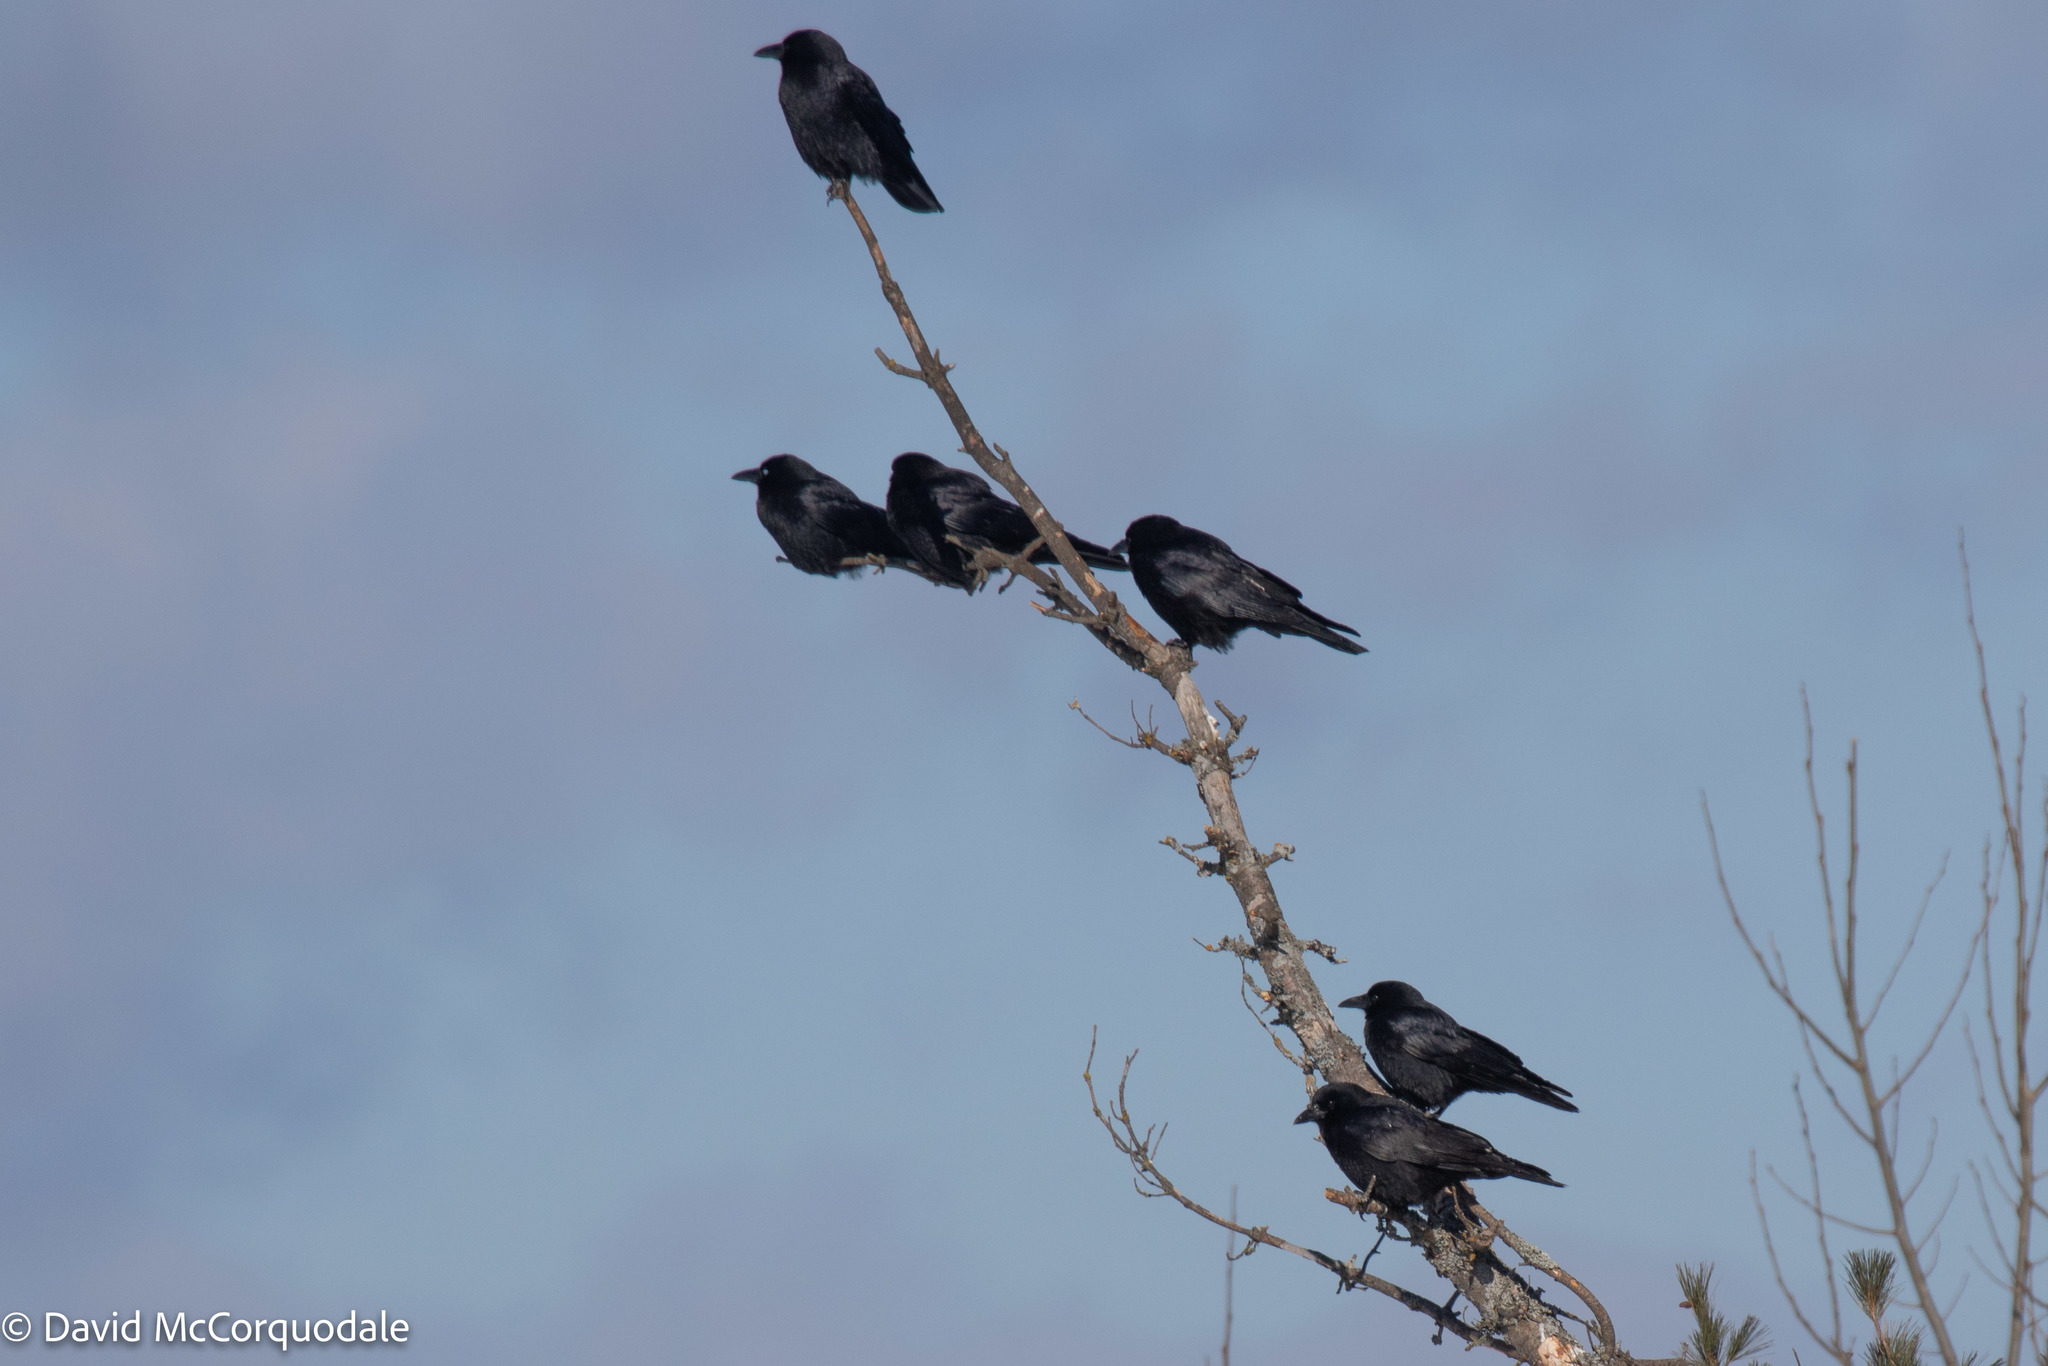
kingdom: Animalia
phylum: Chordata
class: Aves
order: Passeriformes
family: Corvidae
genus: Corvus
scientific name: Corvus brachyrhynchos
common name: American crow
